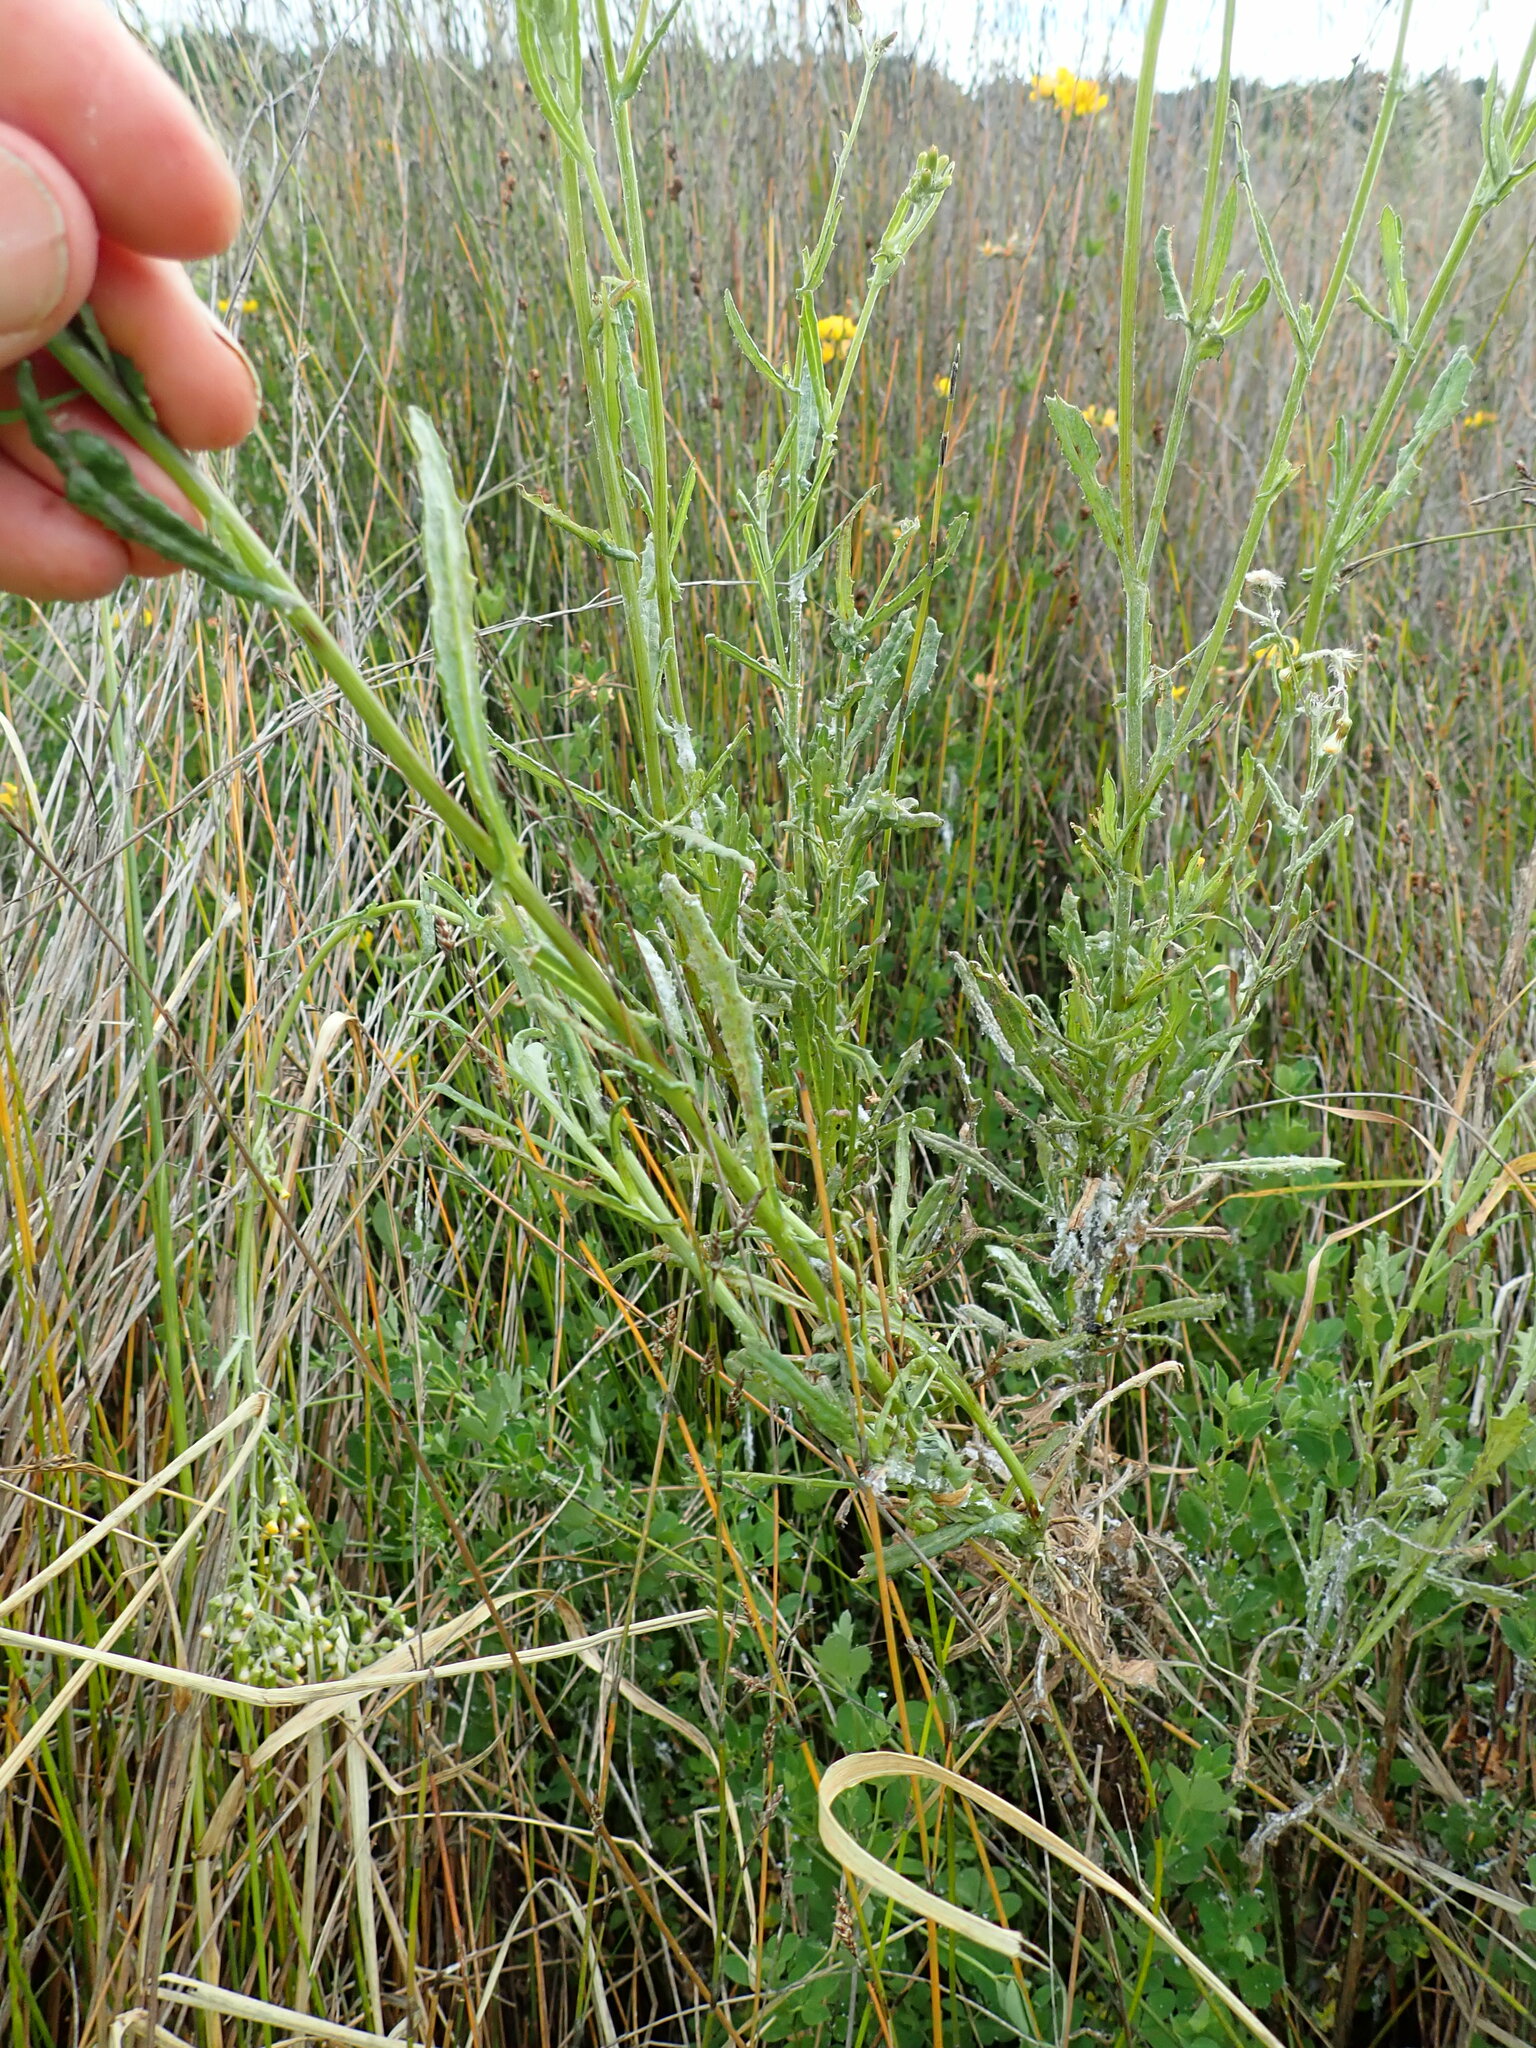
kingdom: Plantae
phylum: Tracheophyta
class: Magnoliopsida
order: Asterales
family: Asteraceae
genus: Senecio
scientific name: Senecio glomeratus
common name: Cutleaf burnweed
